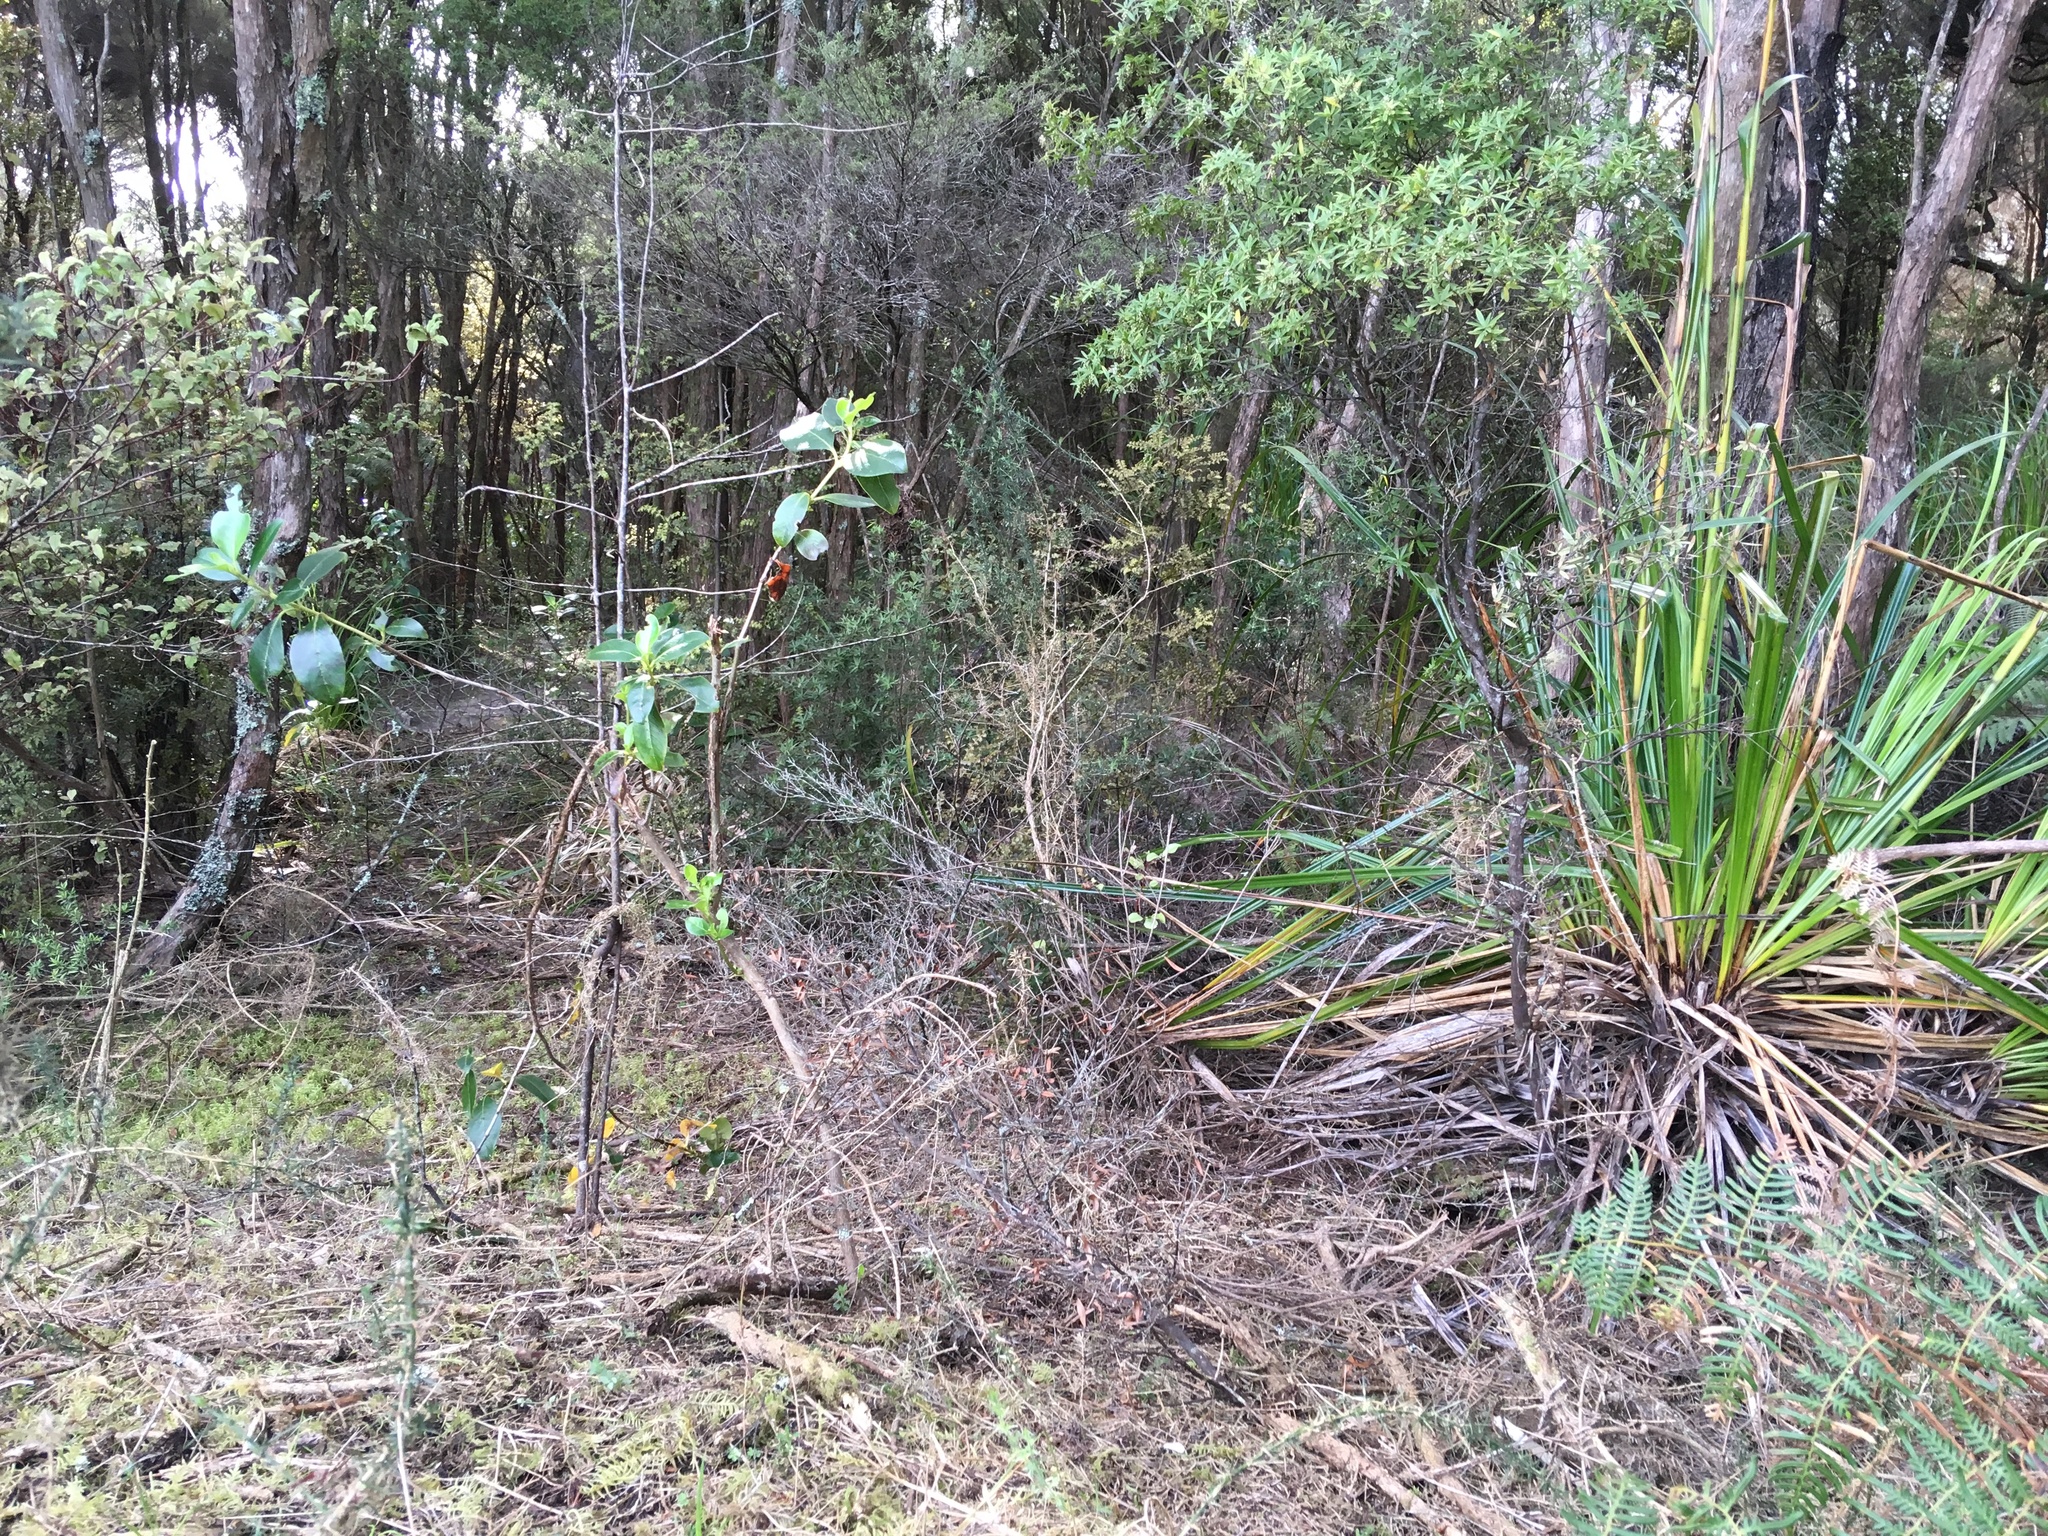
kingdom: Plantae
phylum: Tracheophyta
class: Magnoliopsida
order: Gentianales
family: Rubiaceae
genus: Coprosma
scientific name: Coprosma robusta
